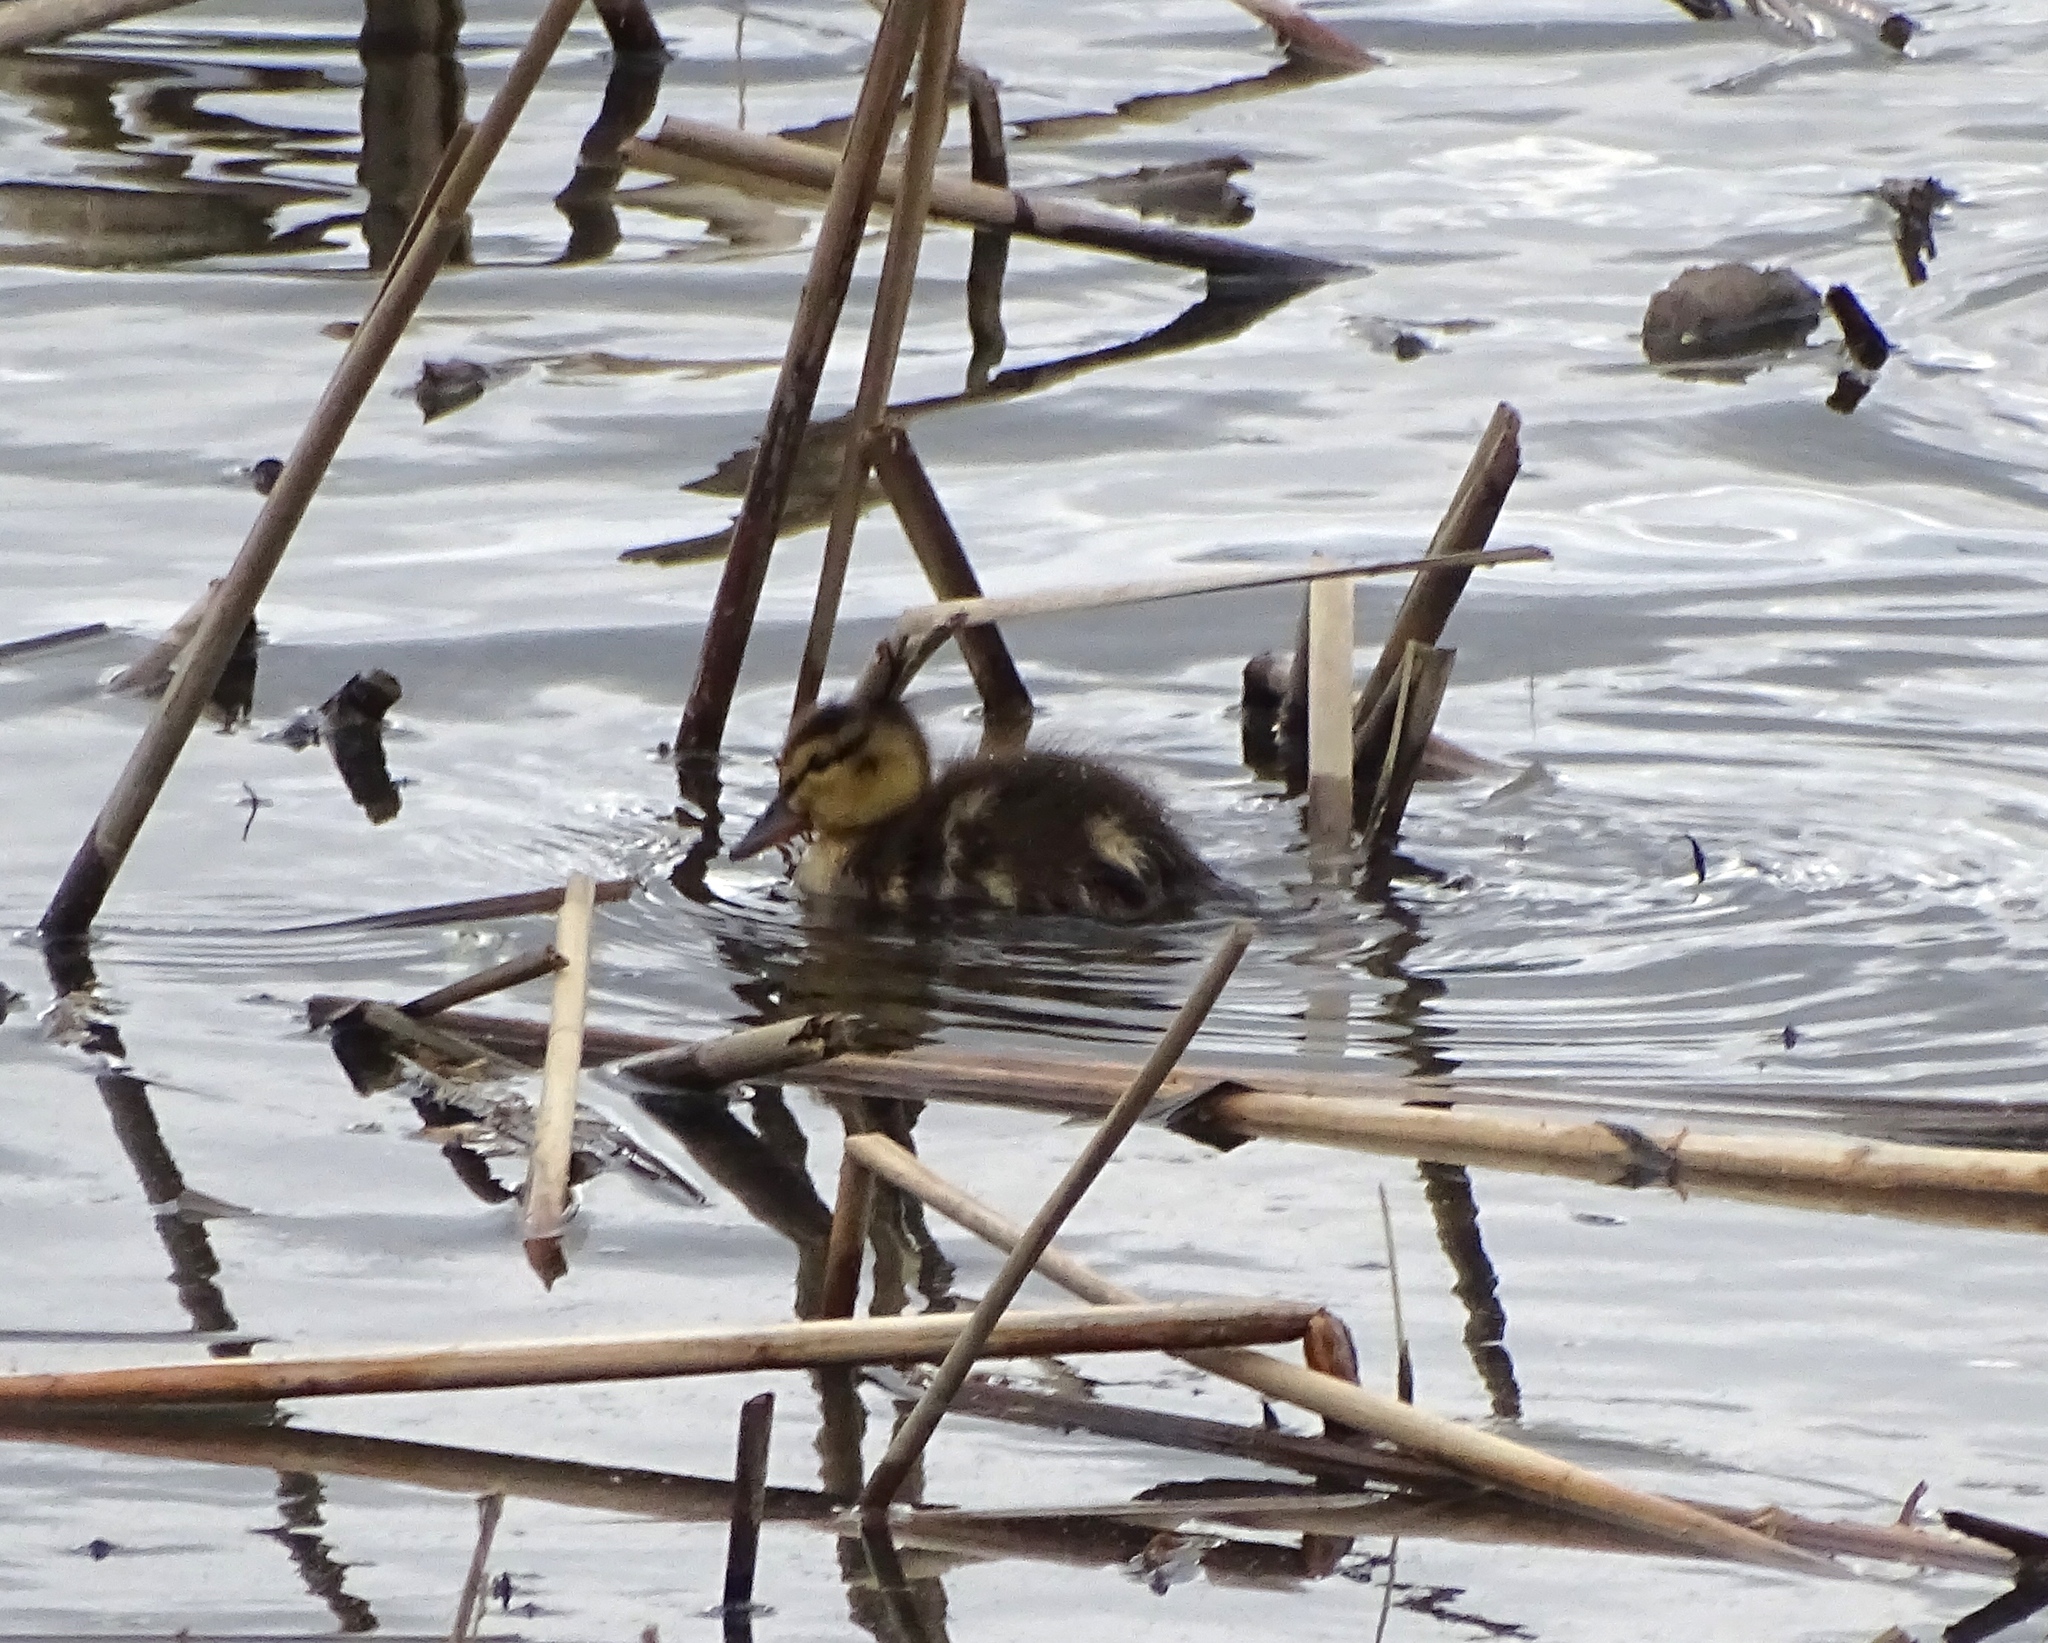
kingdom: Animalia
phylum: Chordata
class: Aves
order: Anseriformes
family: Anatidae
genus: Anas
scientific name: Anas platyrhynchos
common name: Mallard
